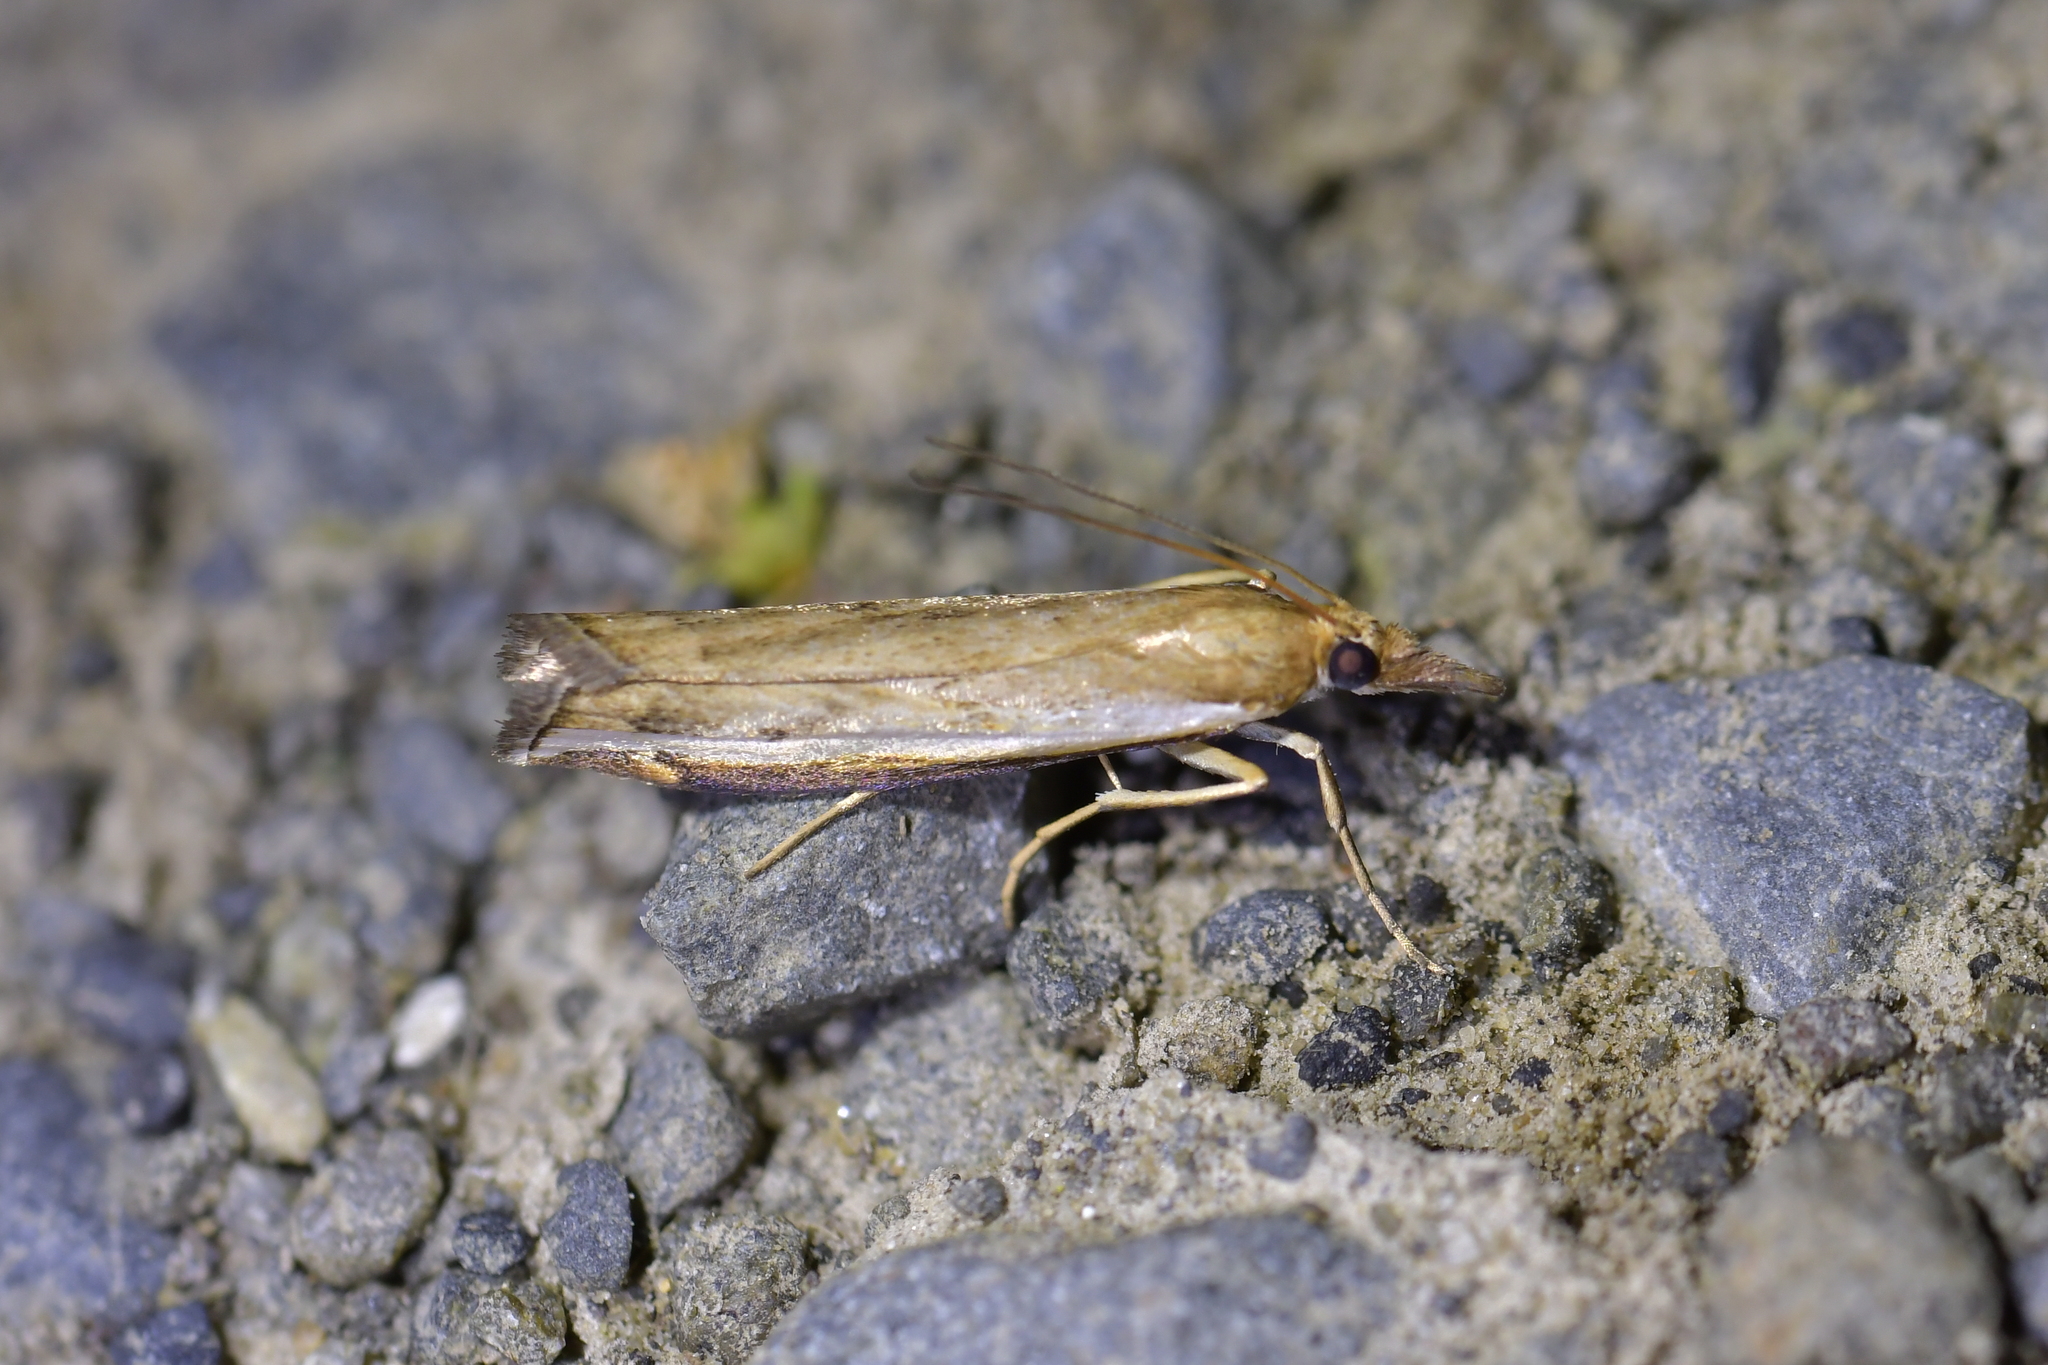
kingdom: Animalia
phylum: Arthropoda
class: Insecta
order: Lepidoptera
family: Crambidae
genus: Orocrambus
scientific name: Orocrambus flexuosellus
